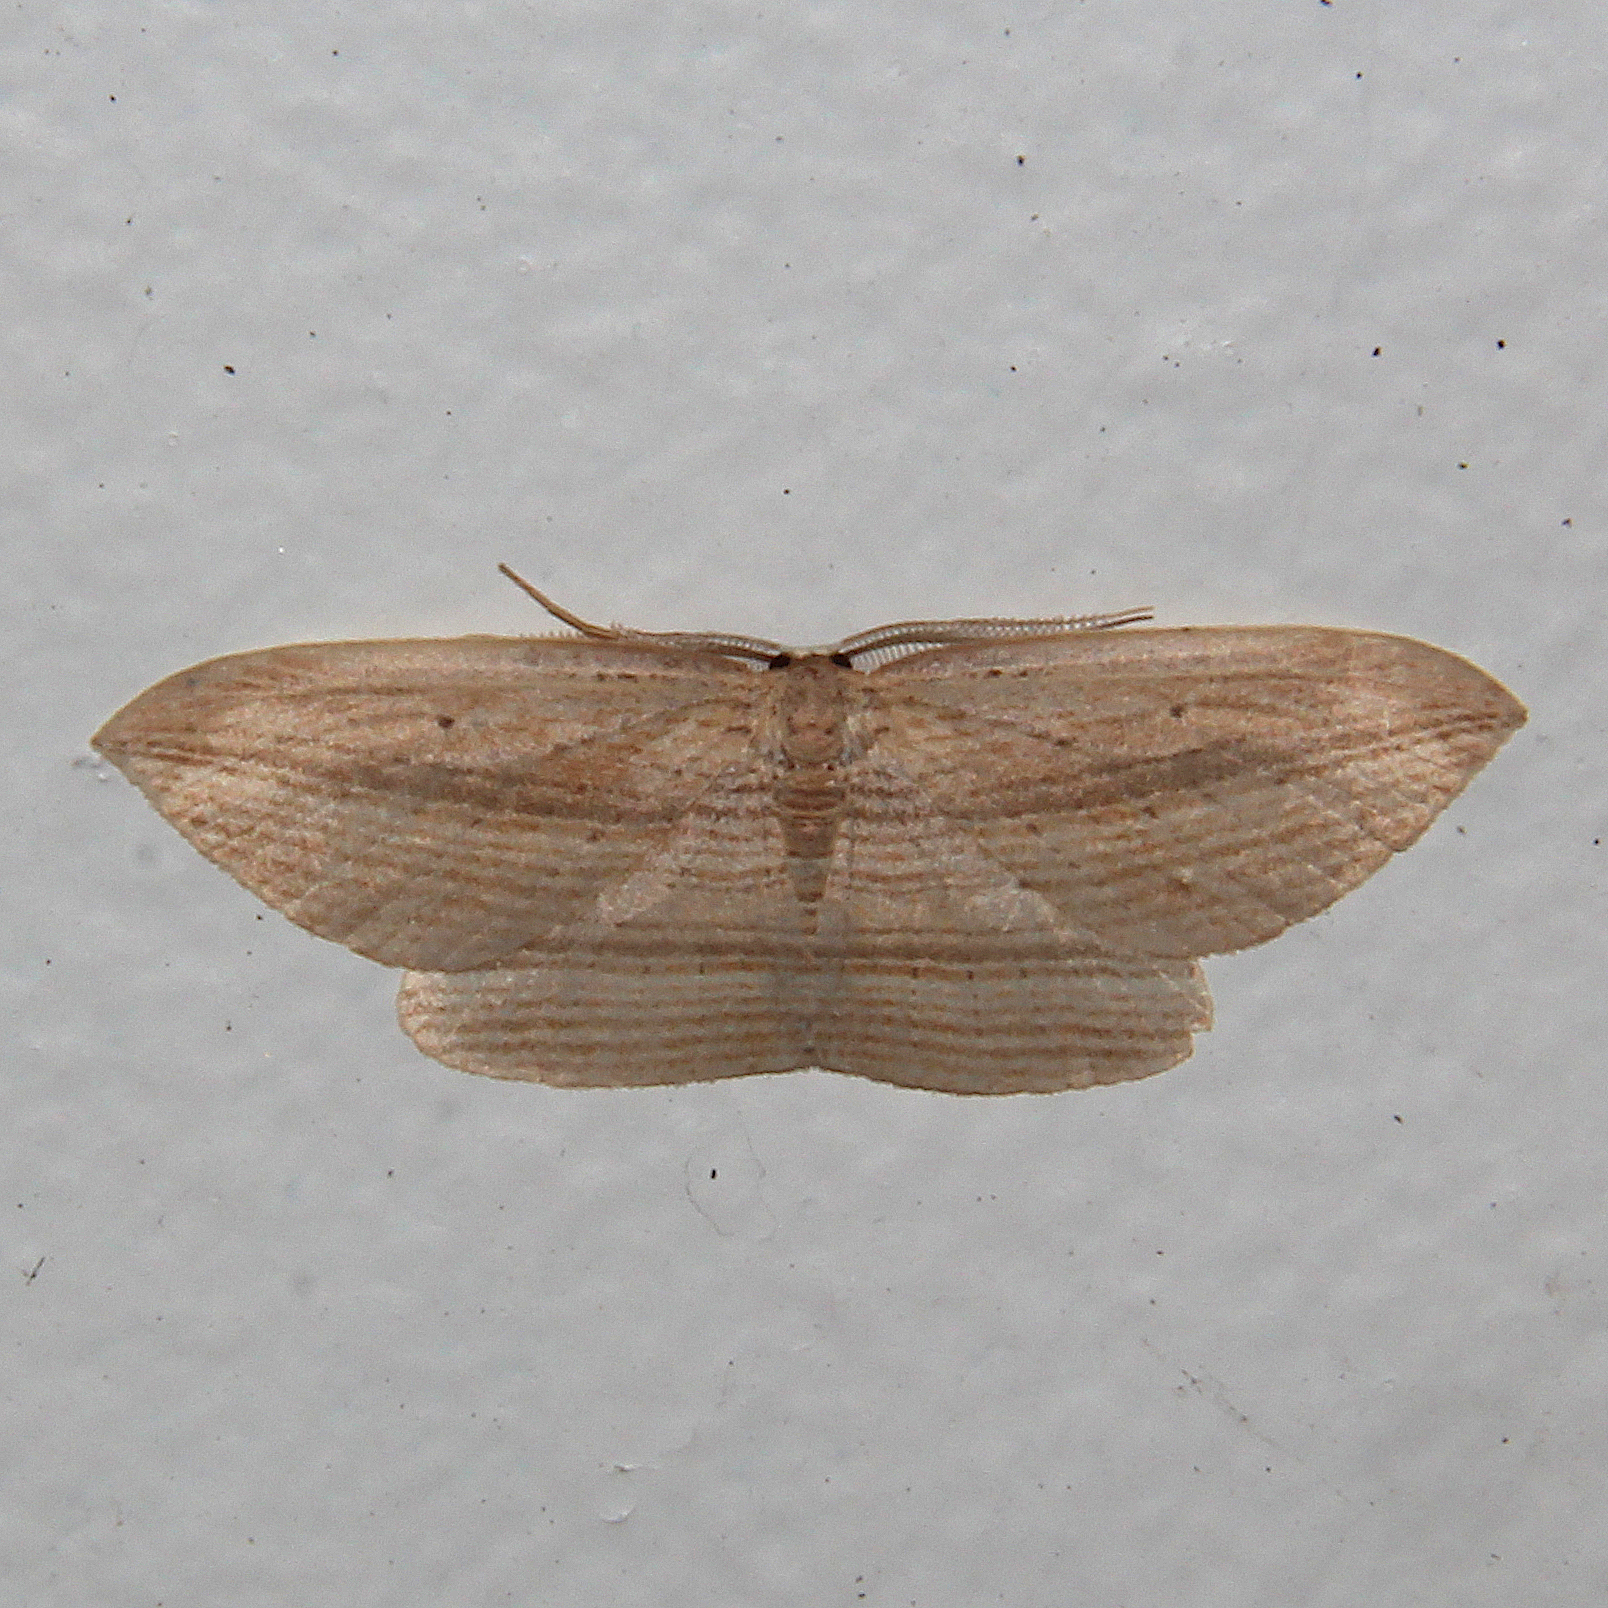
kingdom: Animalia
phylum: Arthropoda
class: Insecta
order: Lepidoptera
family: Geometridae
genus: Epiphryne
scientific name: Epiphryne verriculata
